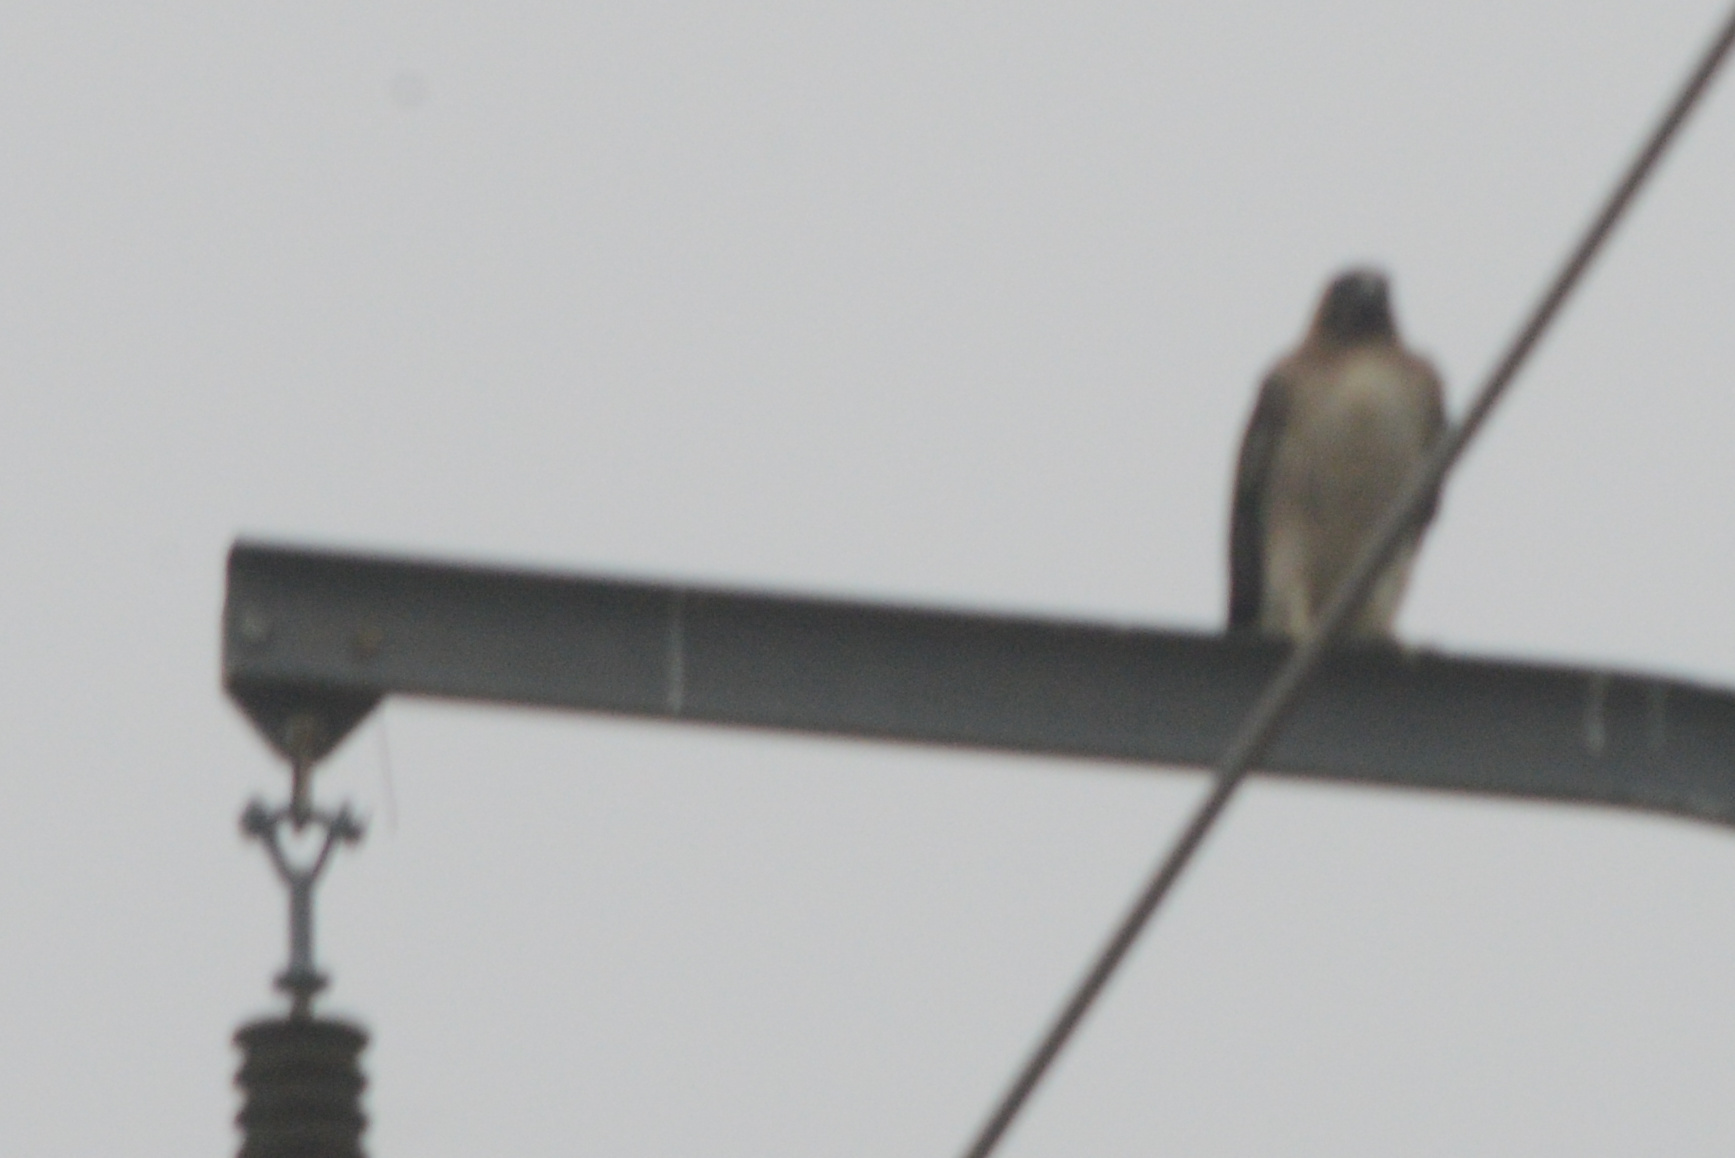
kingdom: Animalia
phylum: Chordata
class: Aves
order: Accipitriformes
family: Accipitridae
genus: Buteo
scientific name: Buteo jamaicensis
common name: Red-tailed hawk
